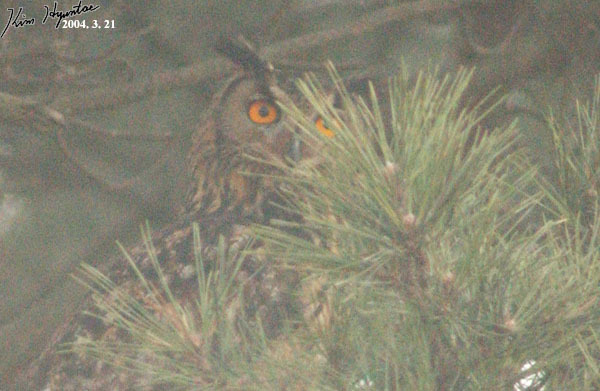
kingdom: Animalia
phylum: Chordata
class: Aves
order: Strigiformes
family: Strigidae
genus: Bubo
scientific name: Bubo bubo
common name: Eurasian eagle-owl
